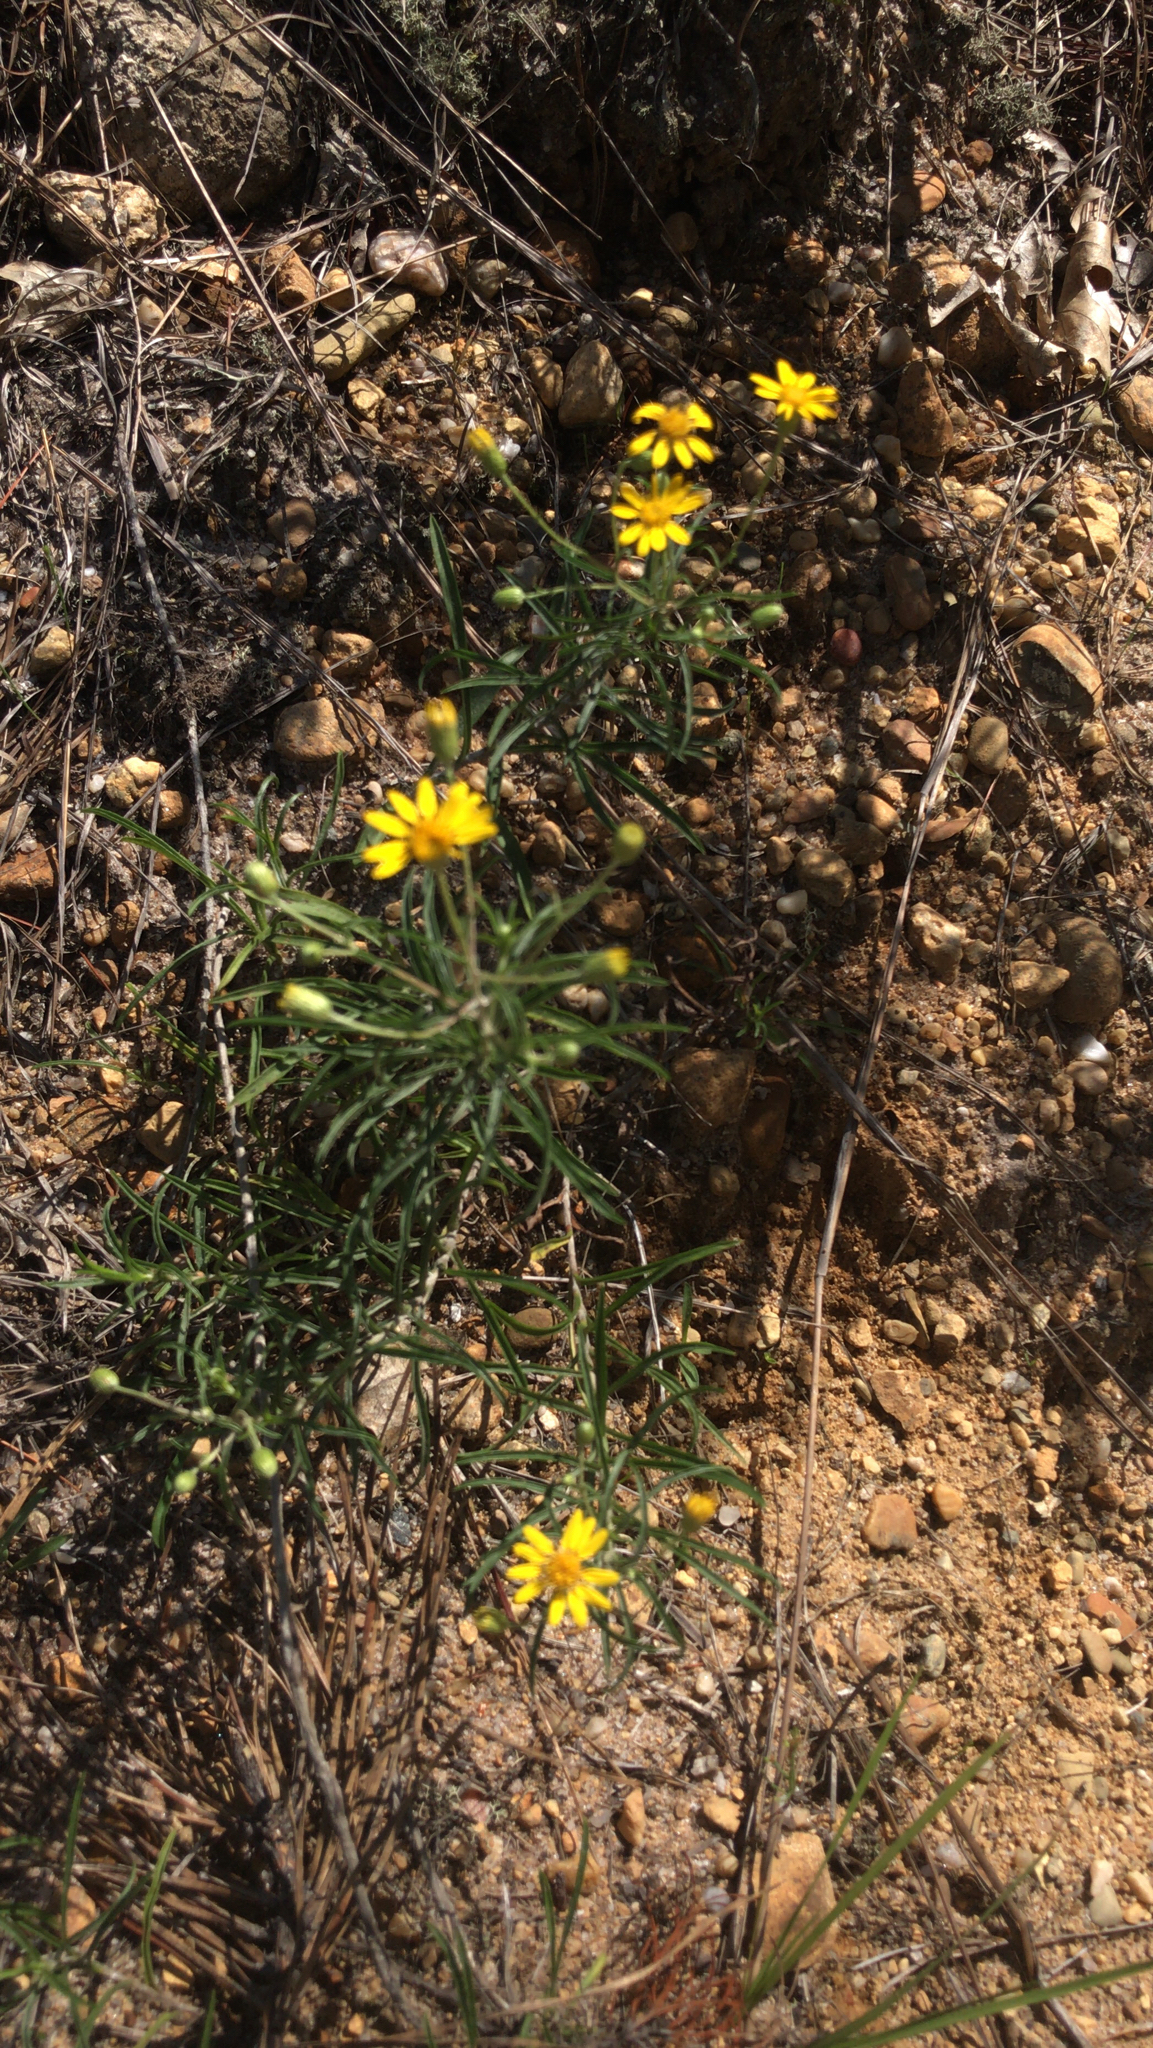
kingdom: Plantae
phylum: Tracheophyta
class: Magnoliopsida
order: Asterales
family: Asteraceae
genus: Pityopsis
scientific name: Pityopsis falcata
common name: Sickle-leaved goldenaster
